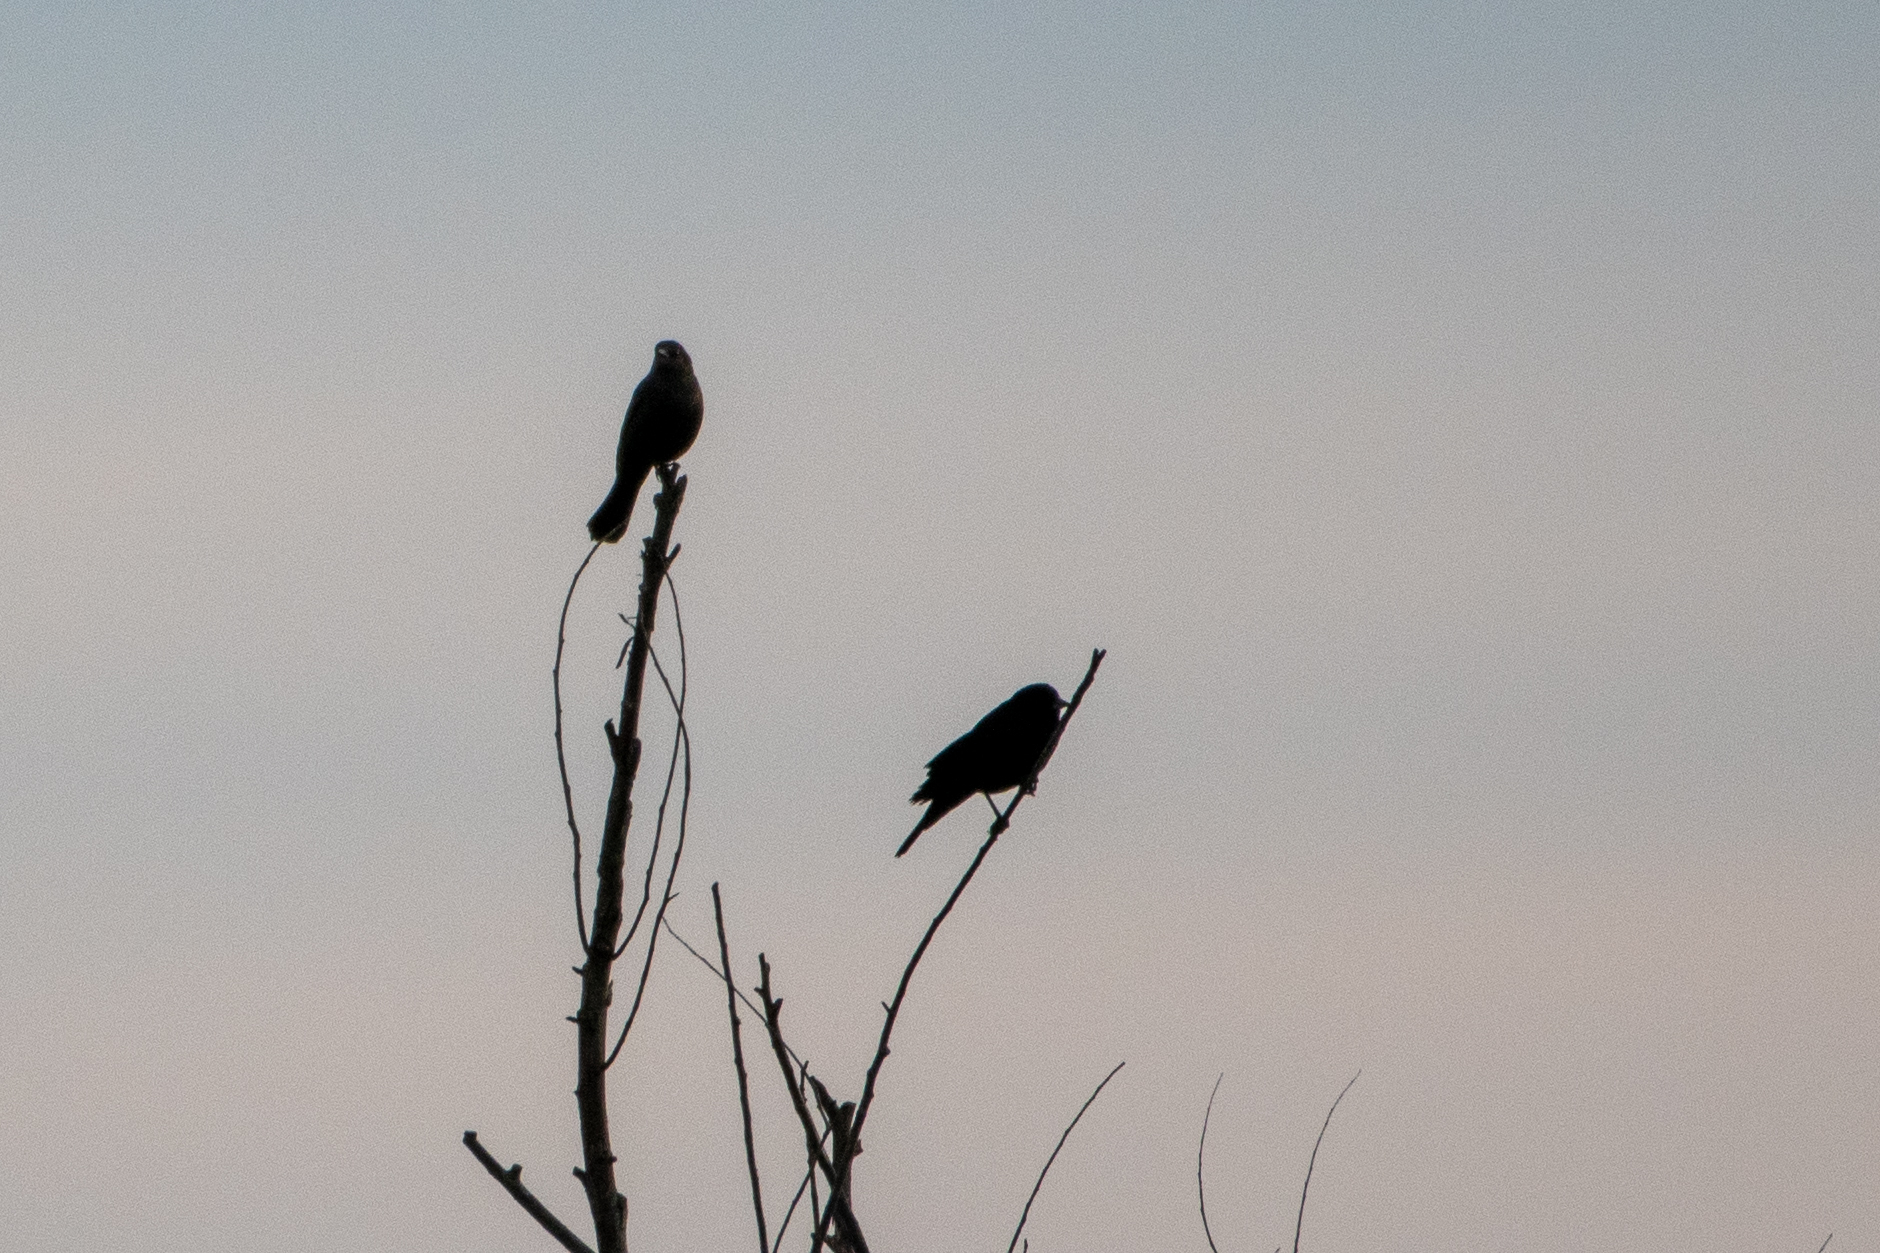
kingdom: Animalia
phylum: Chordata
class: Aves
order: Passeriformes
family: Icteridae
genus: Agelaius
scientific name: Agelaius phoeniceus
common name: Red-winged blackbird
